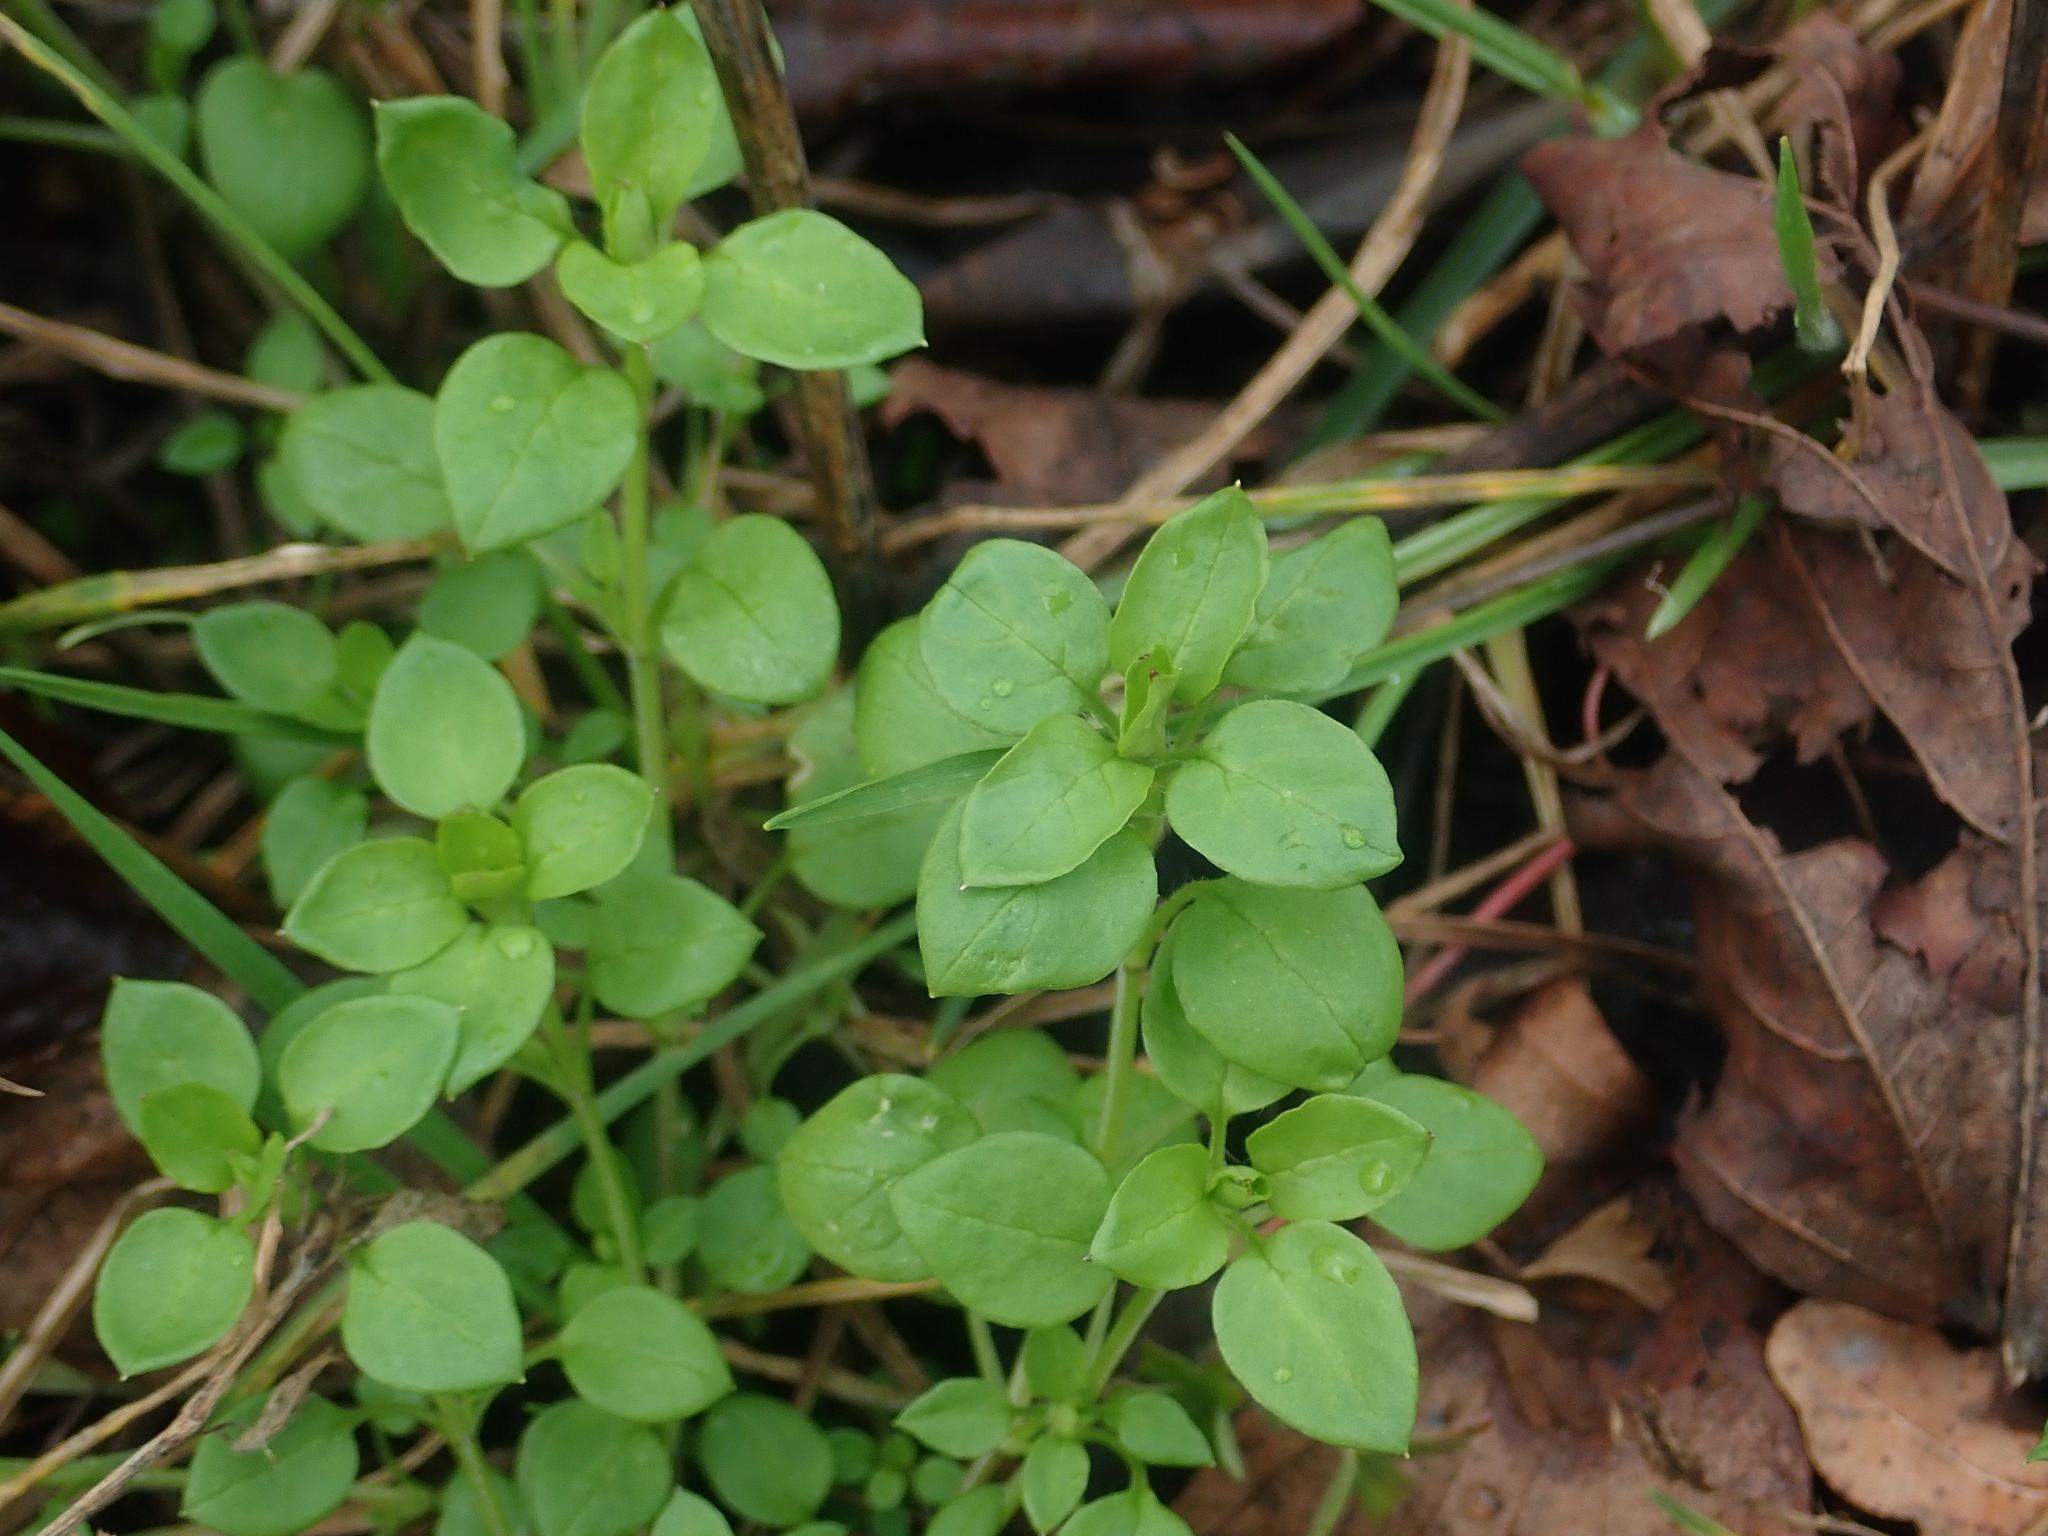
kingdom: Plantae
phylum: Tracheophyta
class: Magnoliopsida
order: Caryophyllales
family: Caryophyllaceae
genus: Stellaria
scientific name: Stellaria media
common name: Common chickweed
